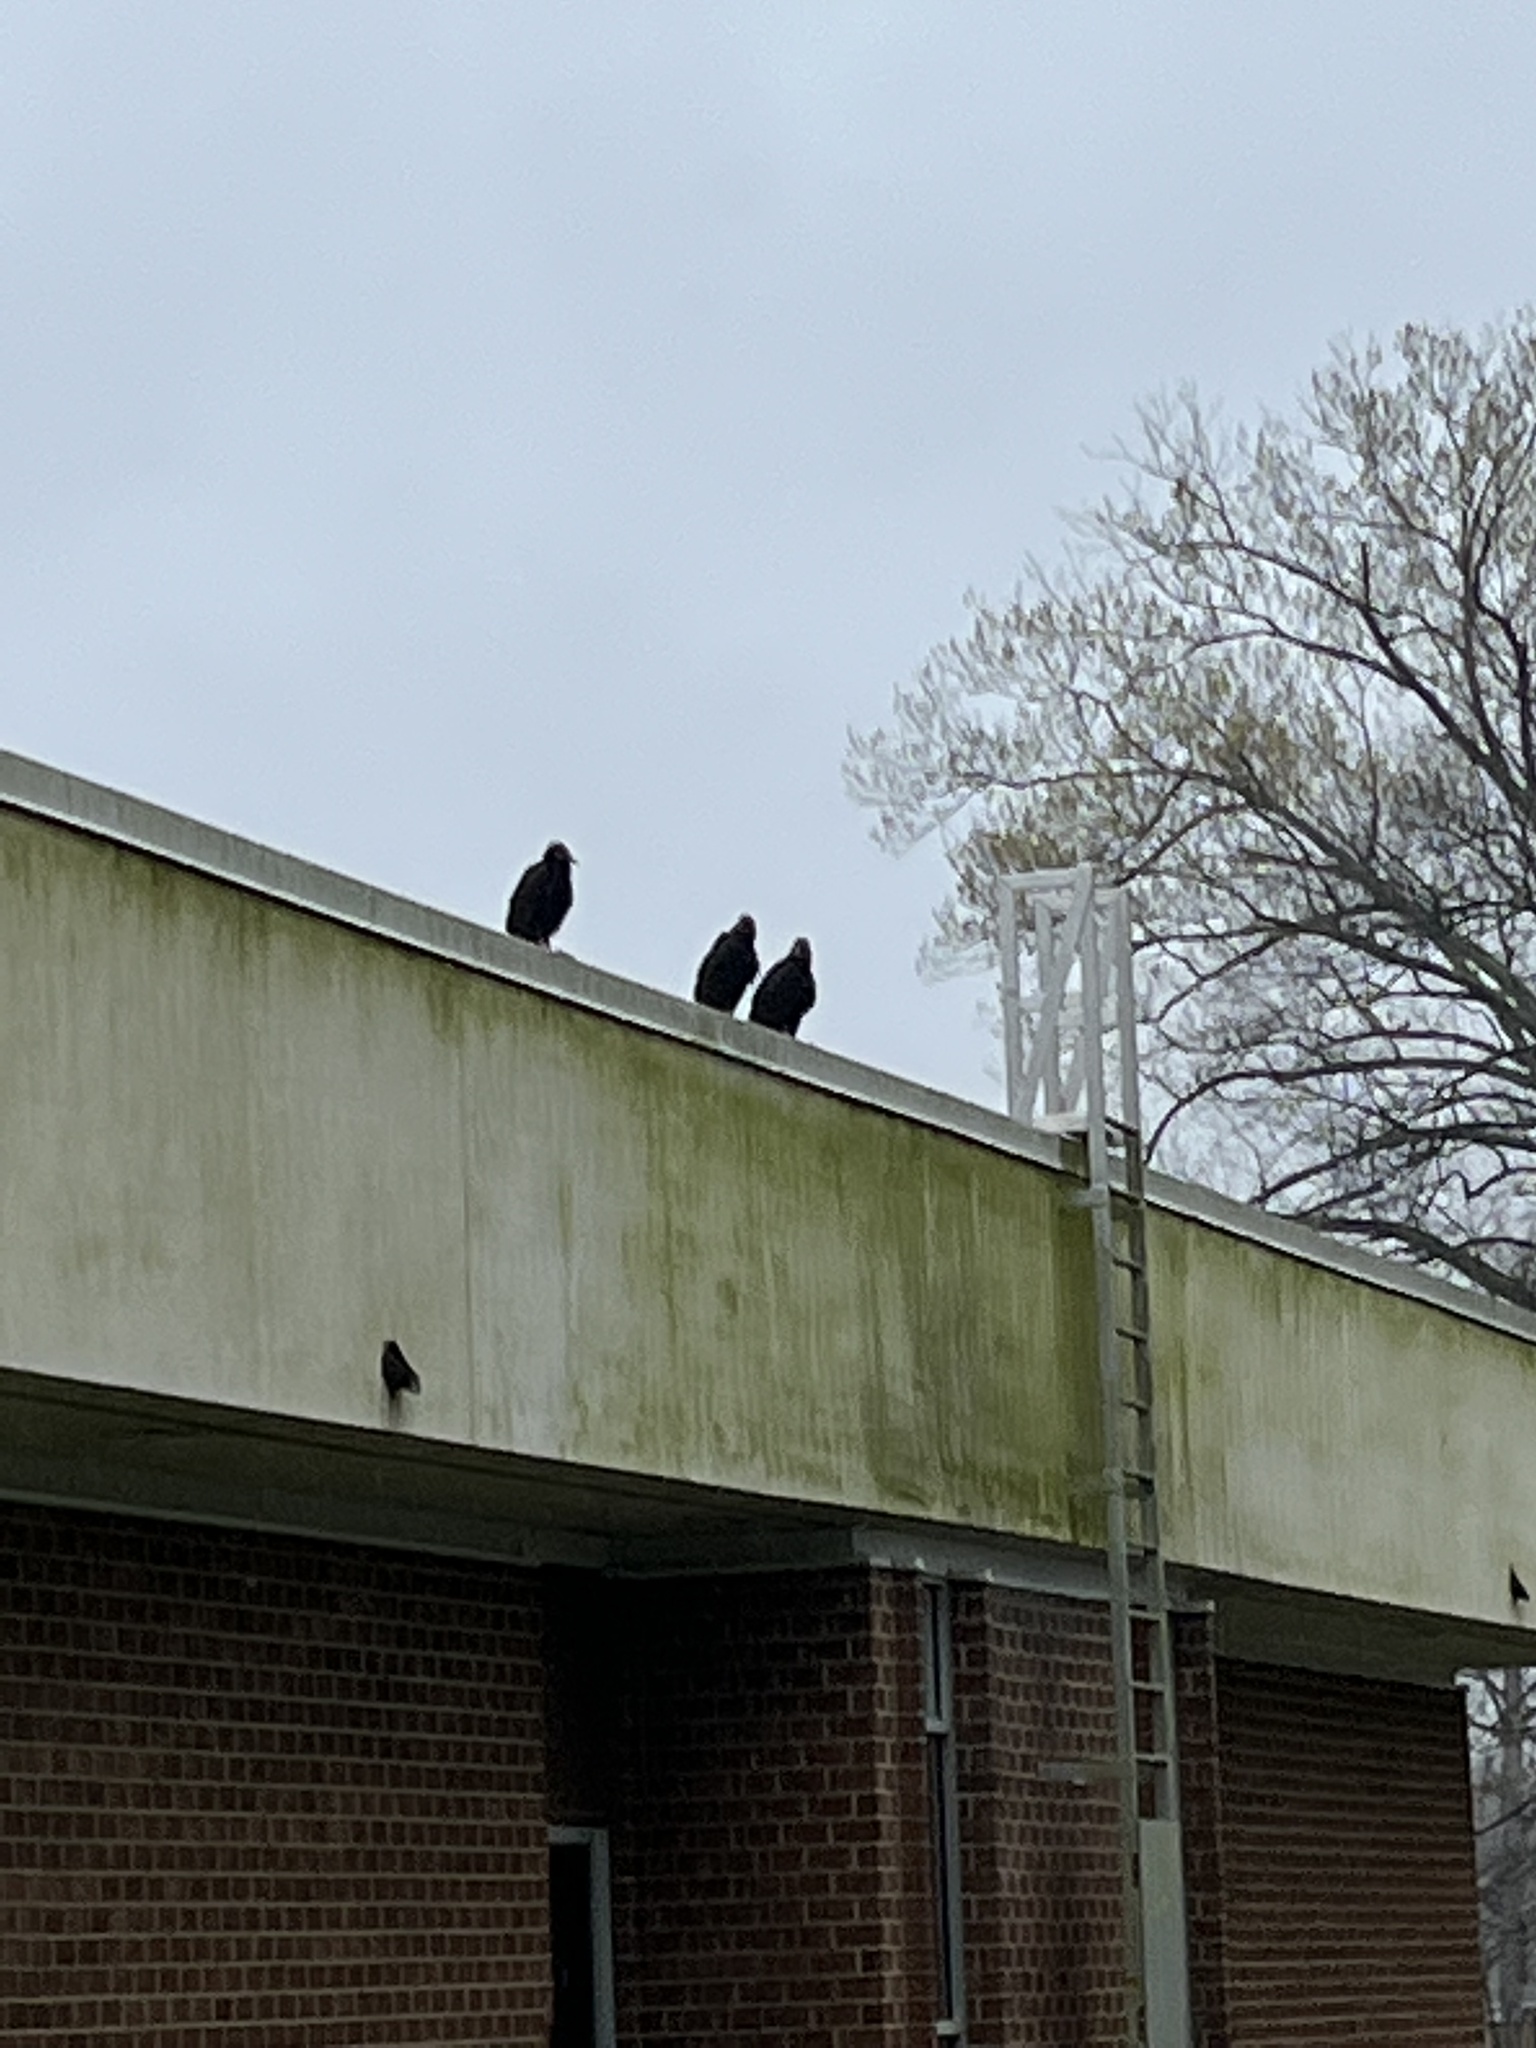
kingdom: Animalia
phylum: Chordata
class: Aves
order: Accipitriformes
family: Cathartidae
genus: Coragyps
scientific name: Coragyps atratus
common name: Black vulture
